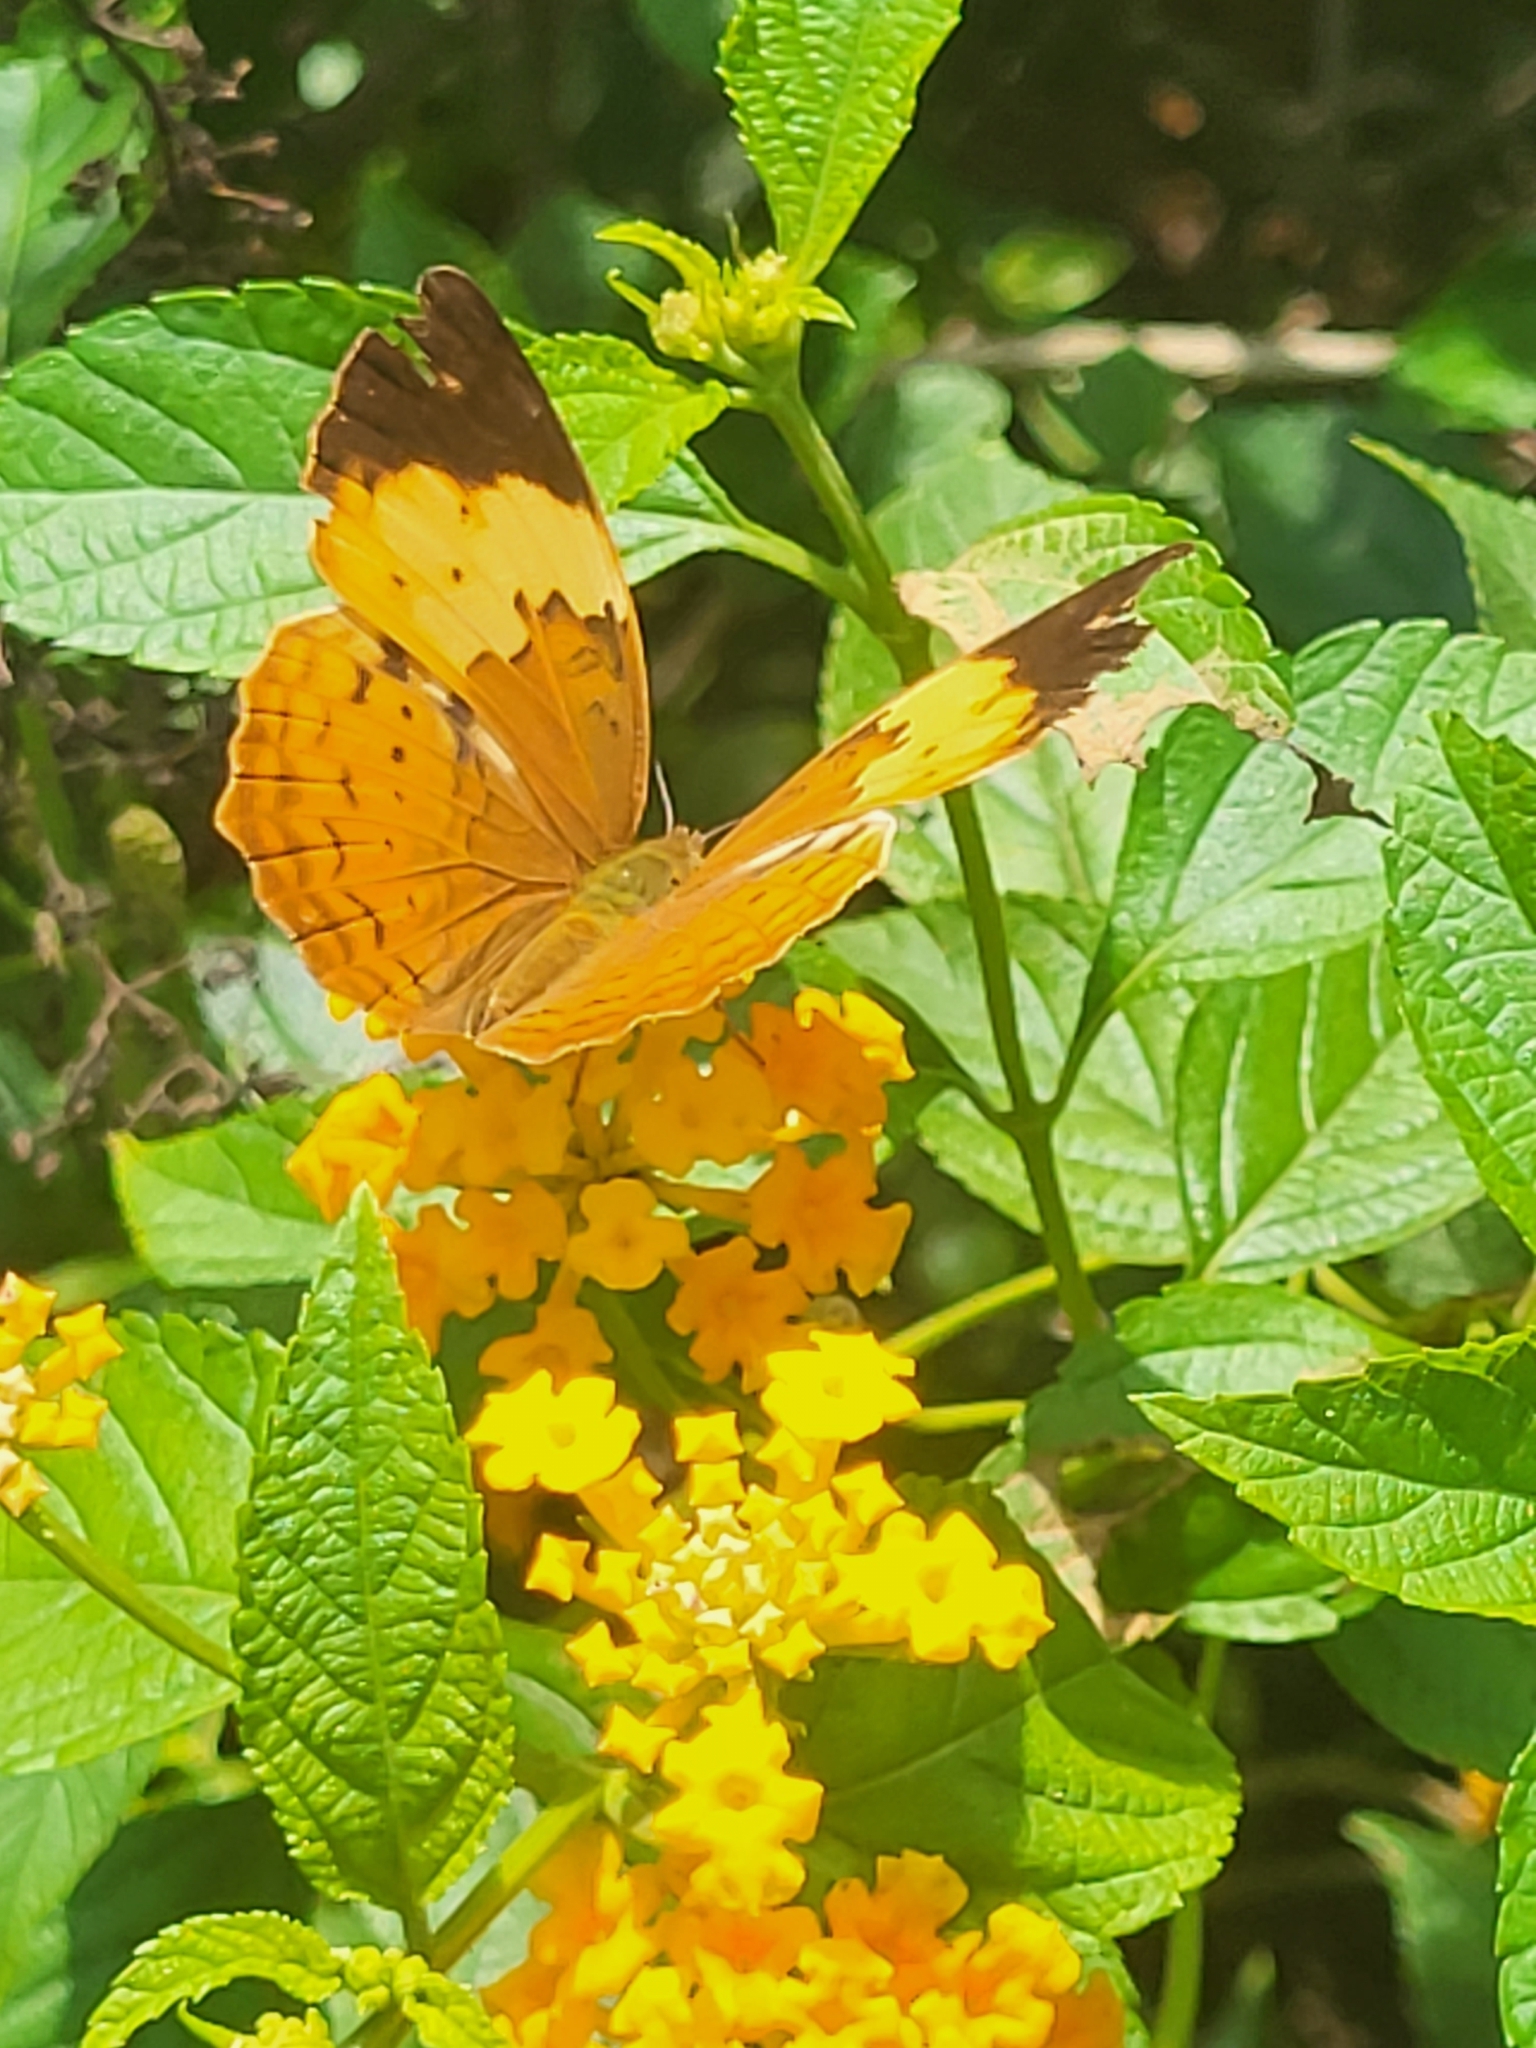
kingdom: Animalia
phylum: Arthropoda
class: Insecta
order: Lepidoptera
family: Nymphalidae
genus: Cupha
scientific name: Cupha erymanthis
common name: Rustic
